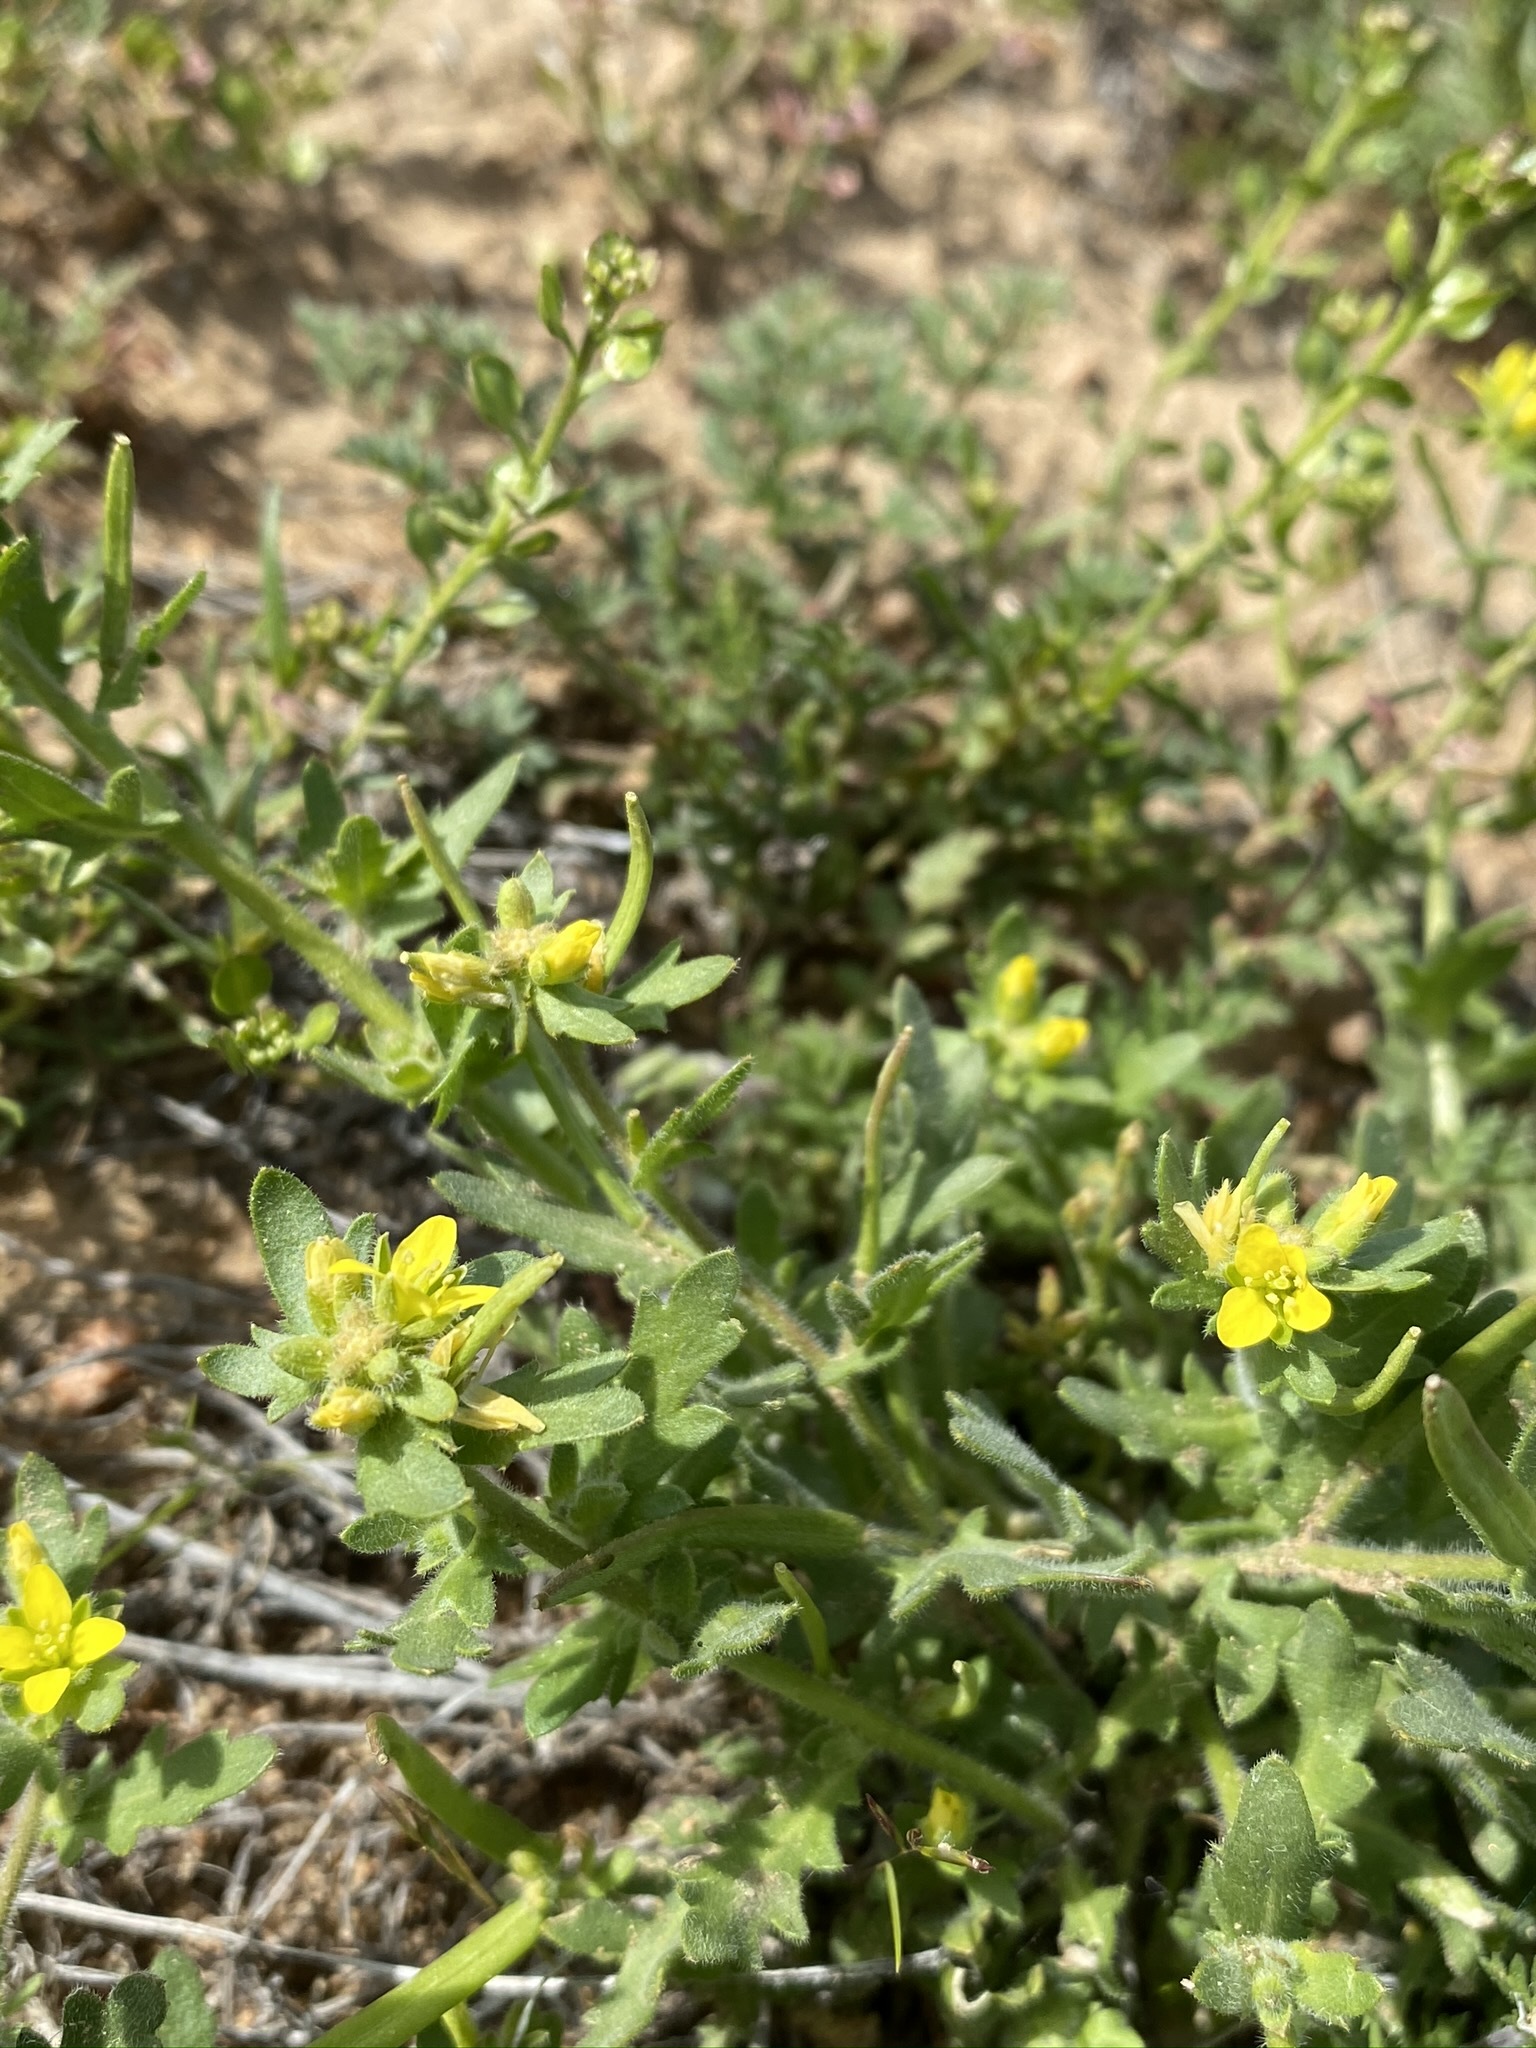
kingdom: Plantae
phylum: Tracheophyta
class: Magnoliopsida
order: Brassicales
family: Brassicaceae
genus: Tropidocarpum
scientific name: Tropidocarpum gracile
